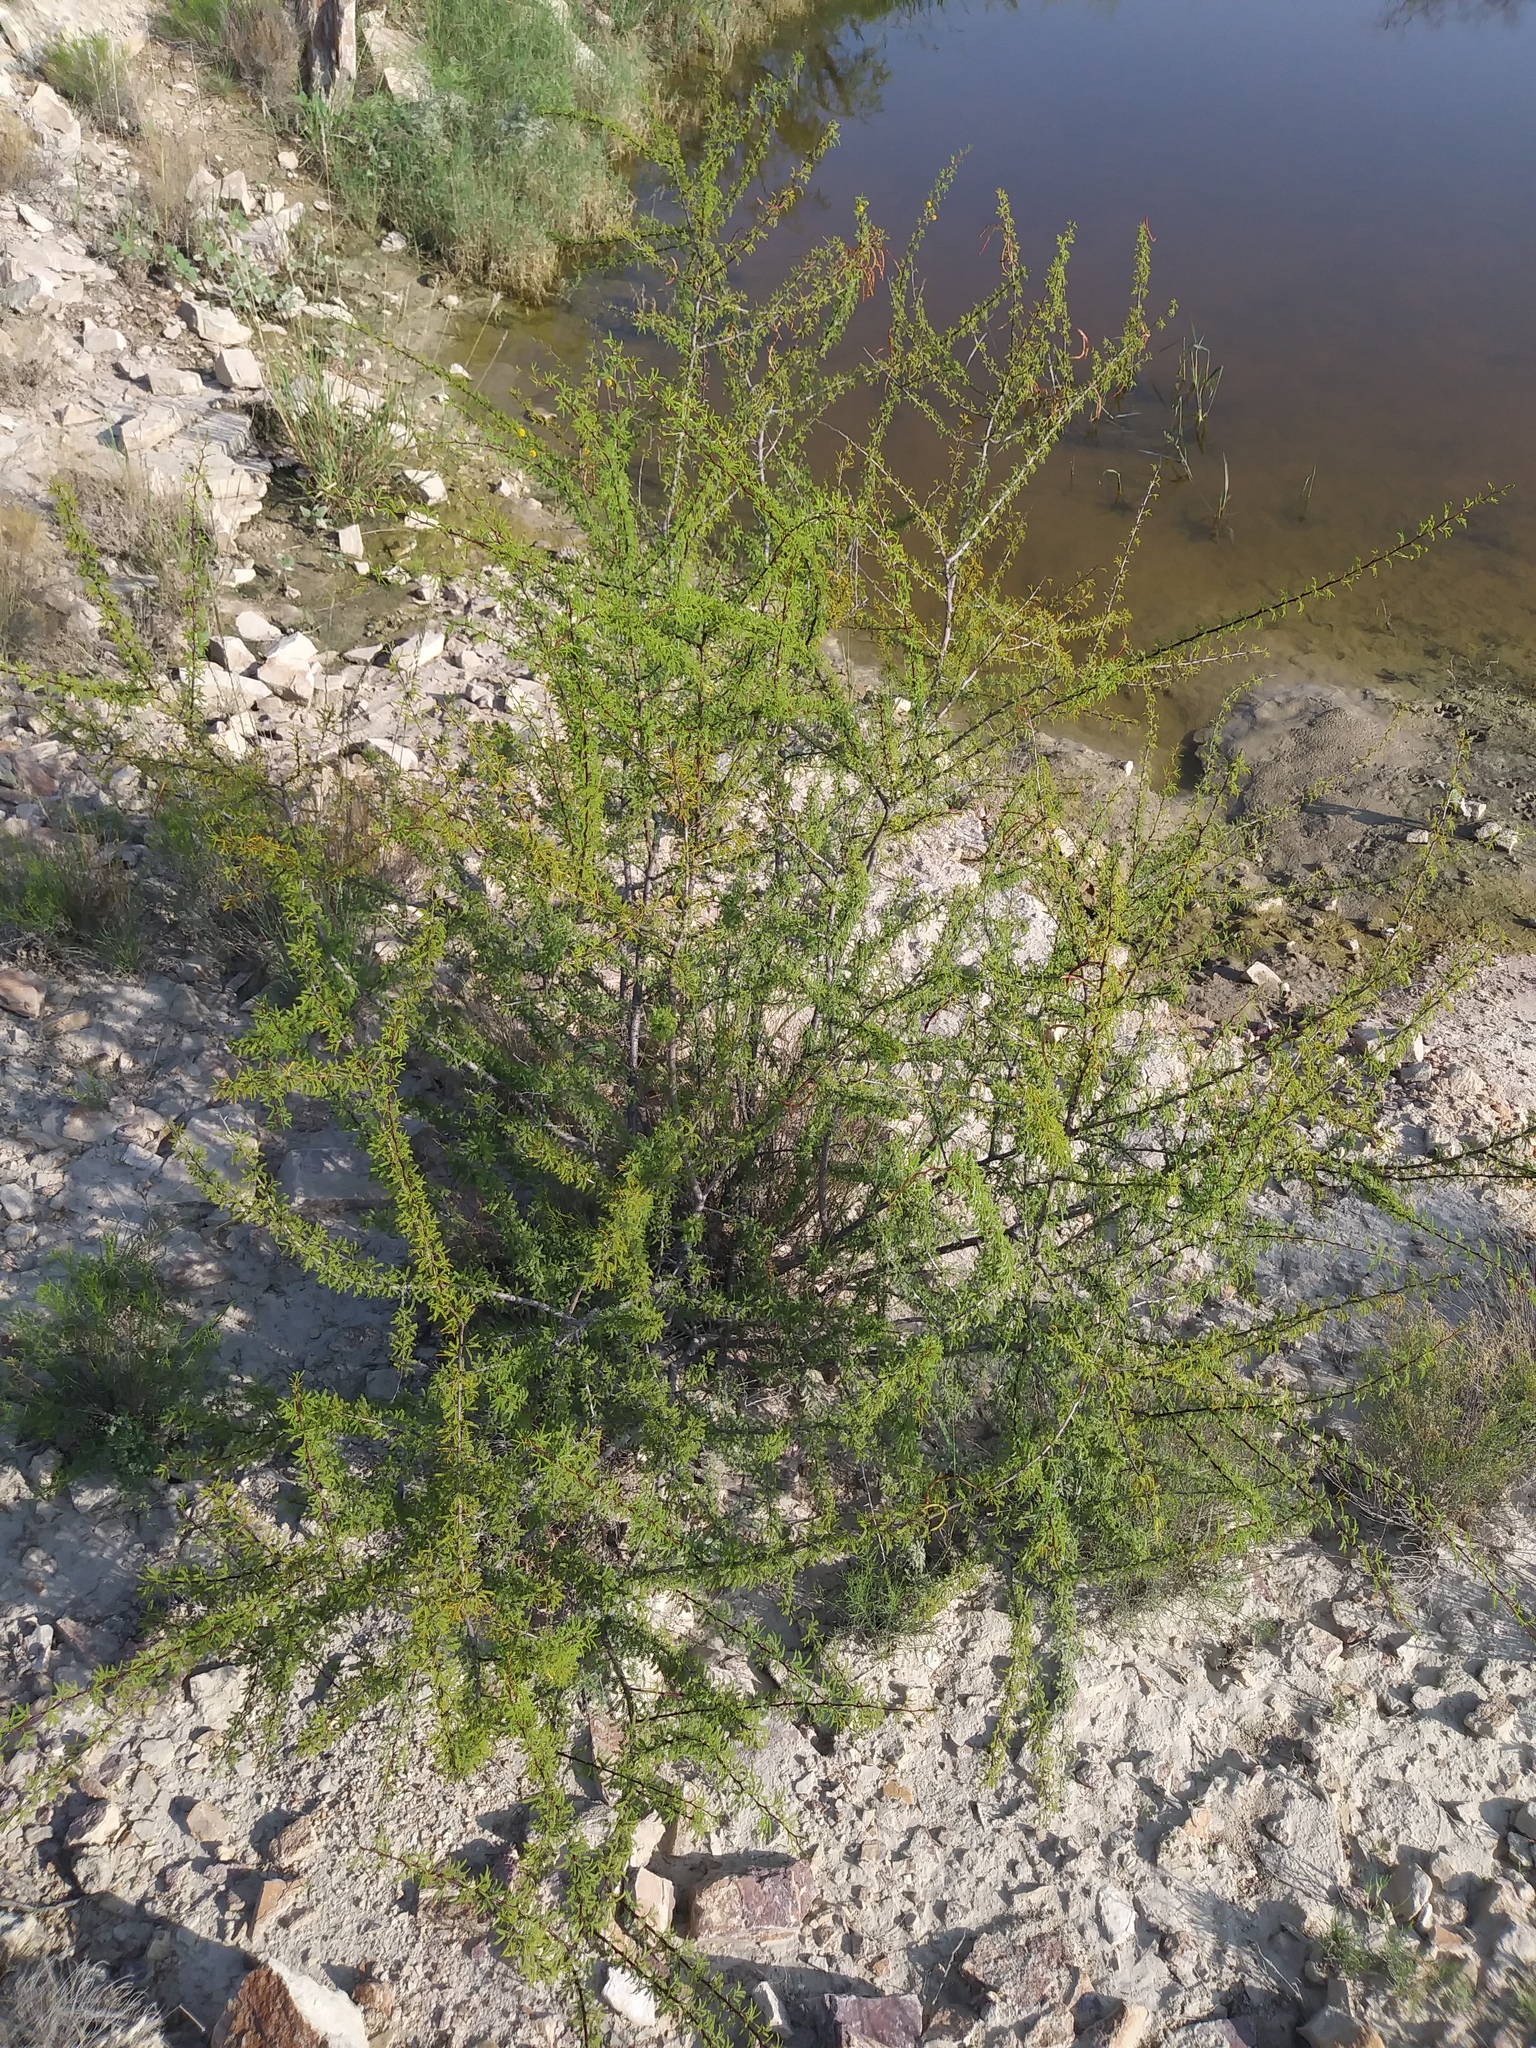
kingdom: Plantae
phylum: Tracheophyta
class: Magnoliopsida
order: Fabales
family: Fabaceae
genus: Vachellia
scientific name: Vachellia vernicosa
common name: Viscid acacia
